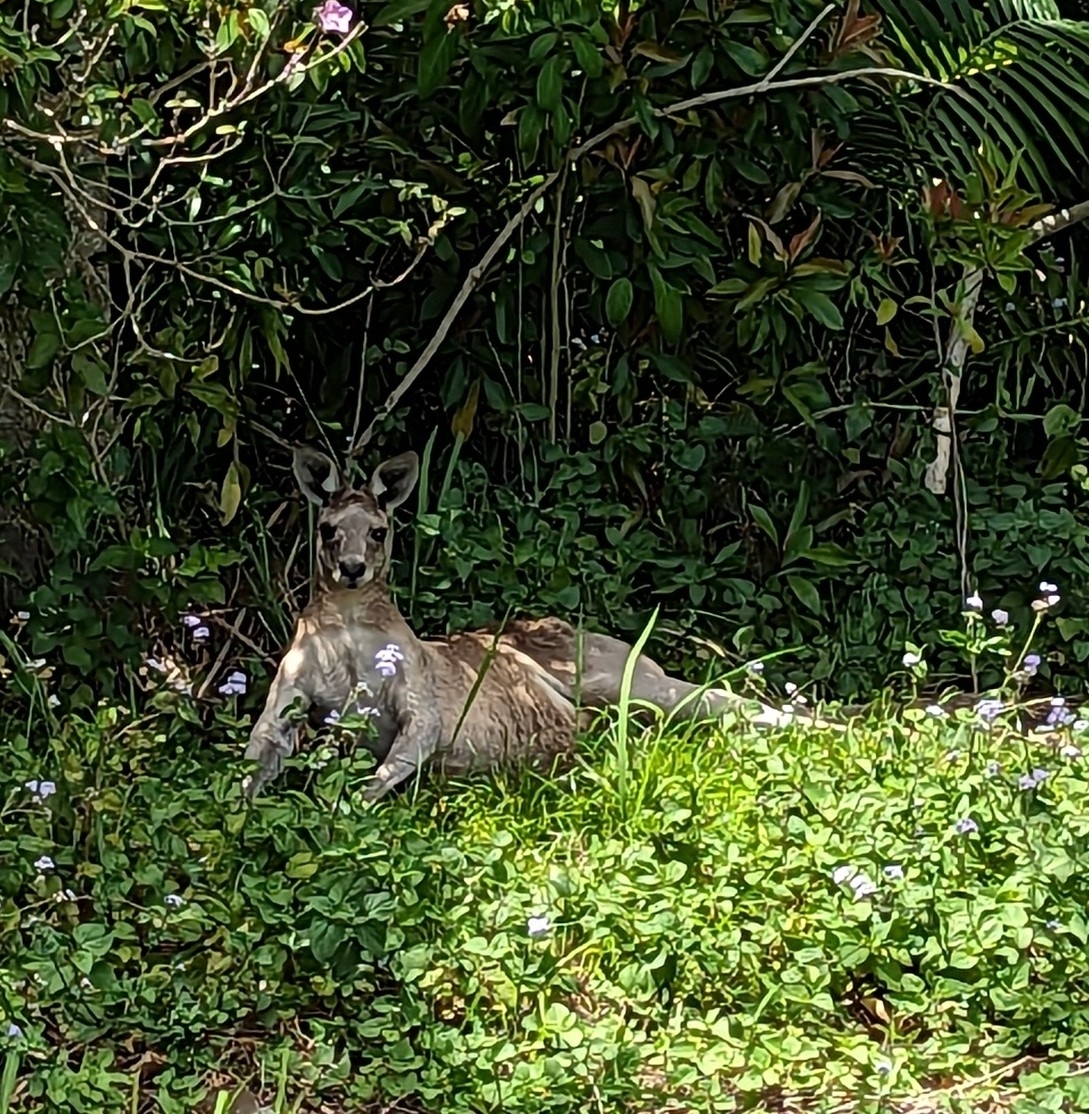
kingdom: Animalia
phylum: Chordata
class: Mammalia
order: Diprotodontia
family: Macropodidae
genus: Macropus
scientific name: Macropus giganteus
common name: Eastern grey kangaroo
